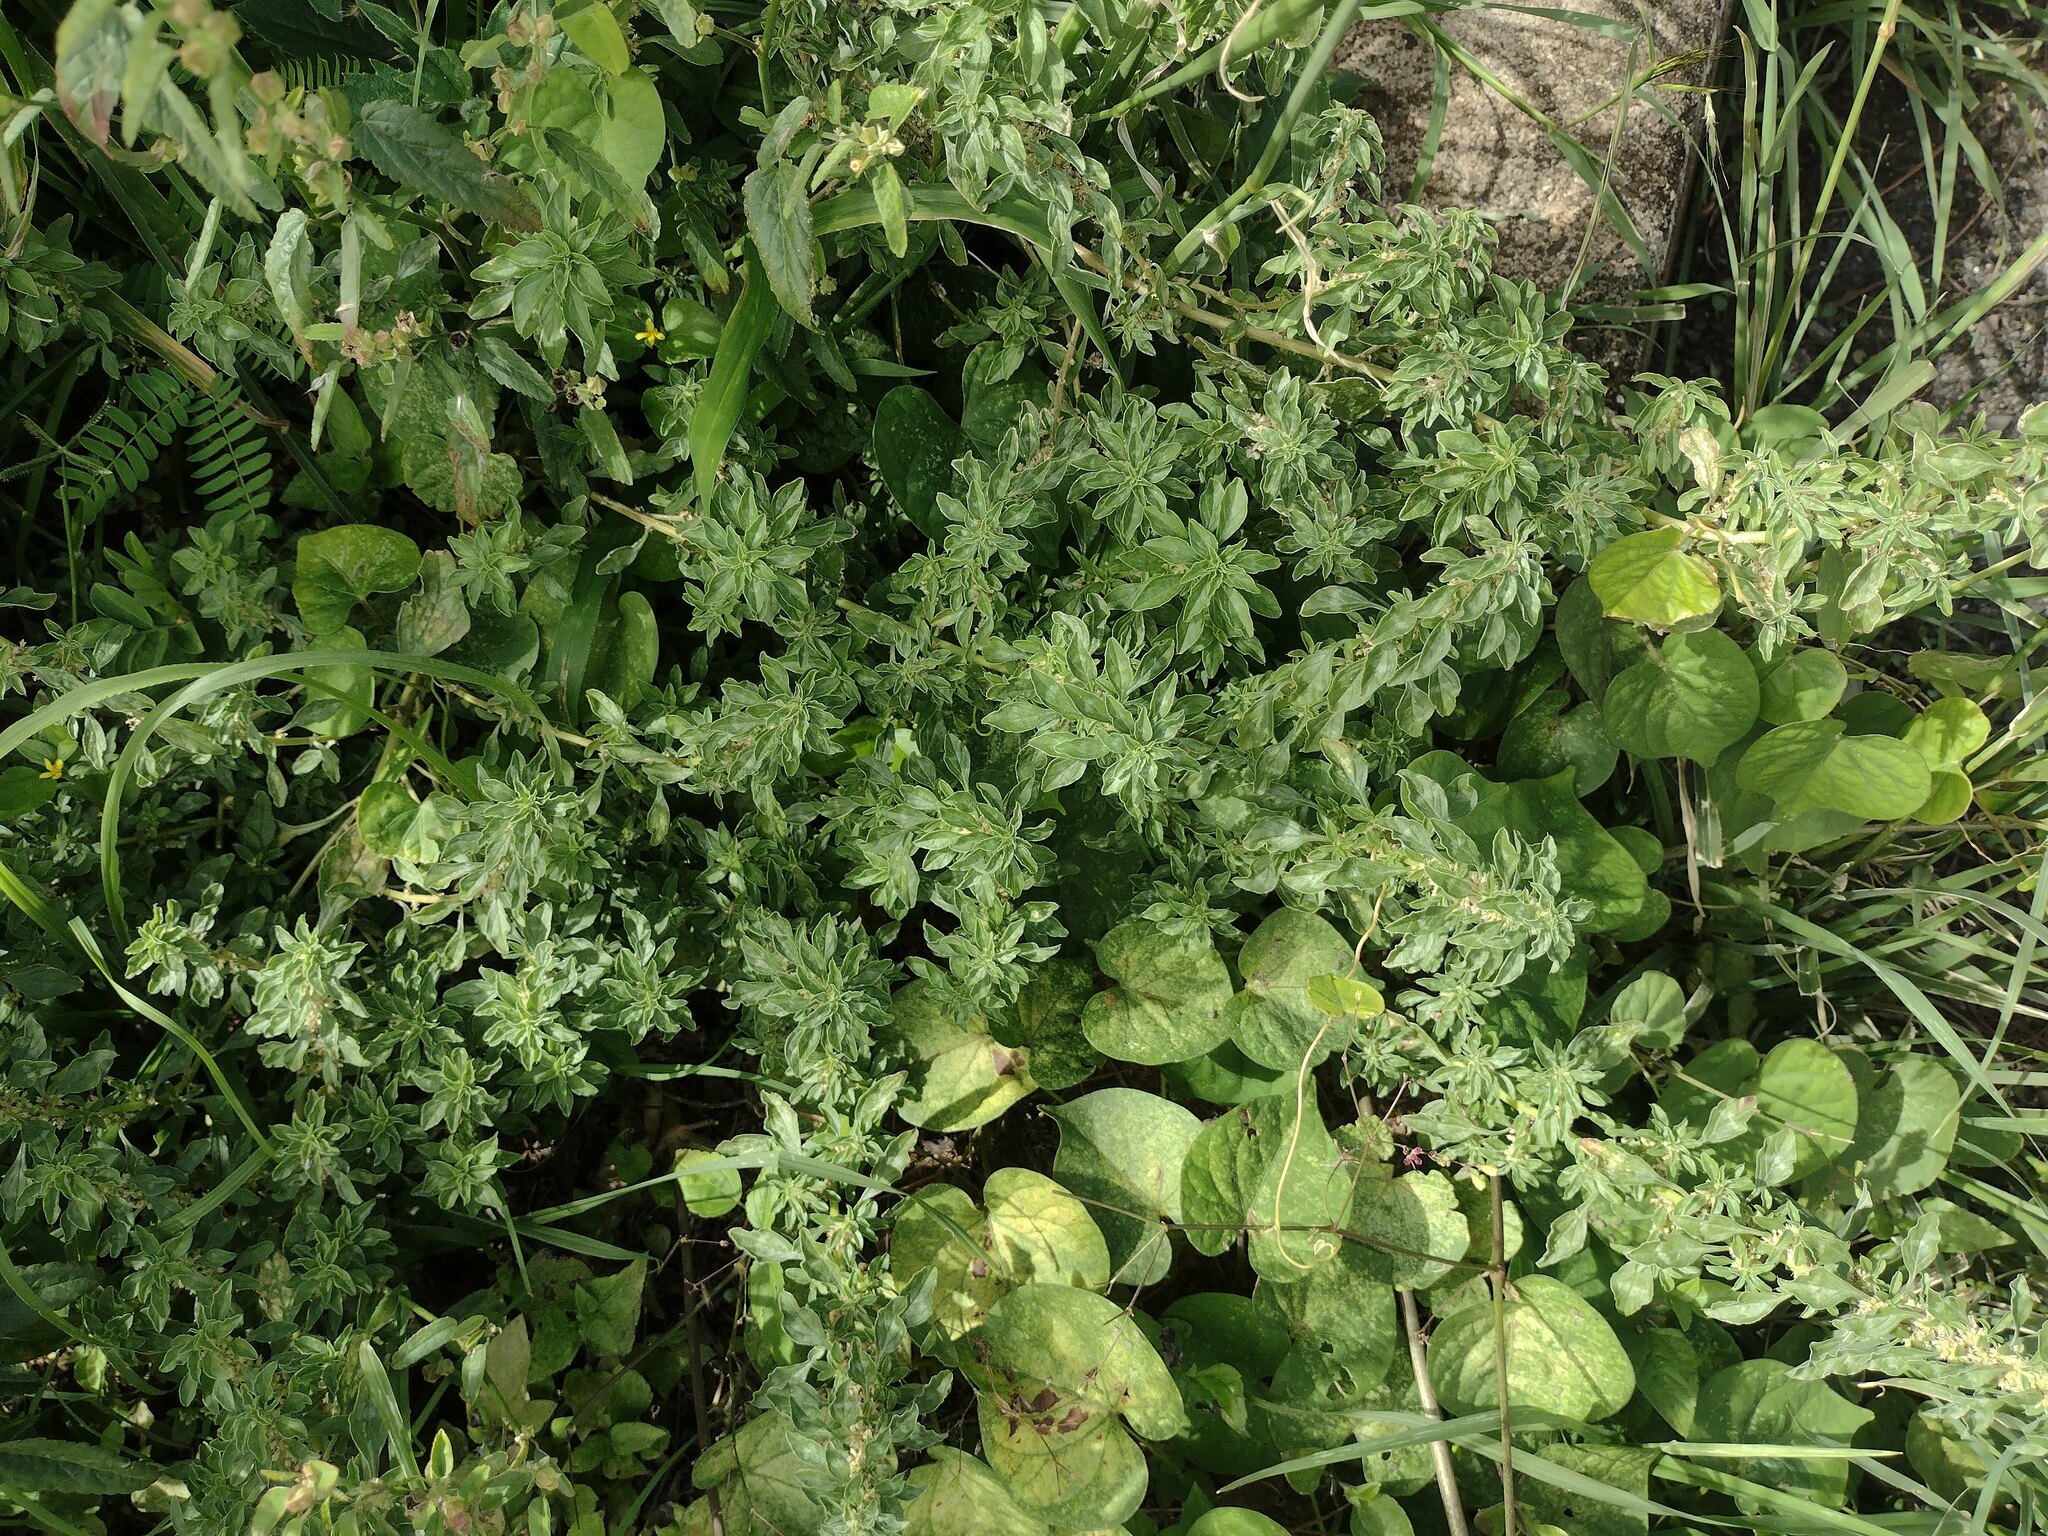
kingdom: Plantae
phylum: Tracheophyta
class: Magnoliopsida
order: Caryophyllales
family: Amaranthaceae
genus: Amaranthus
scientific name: Amaranthus polygonoides
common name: Tropical amaranth
